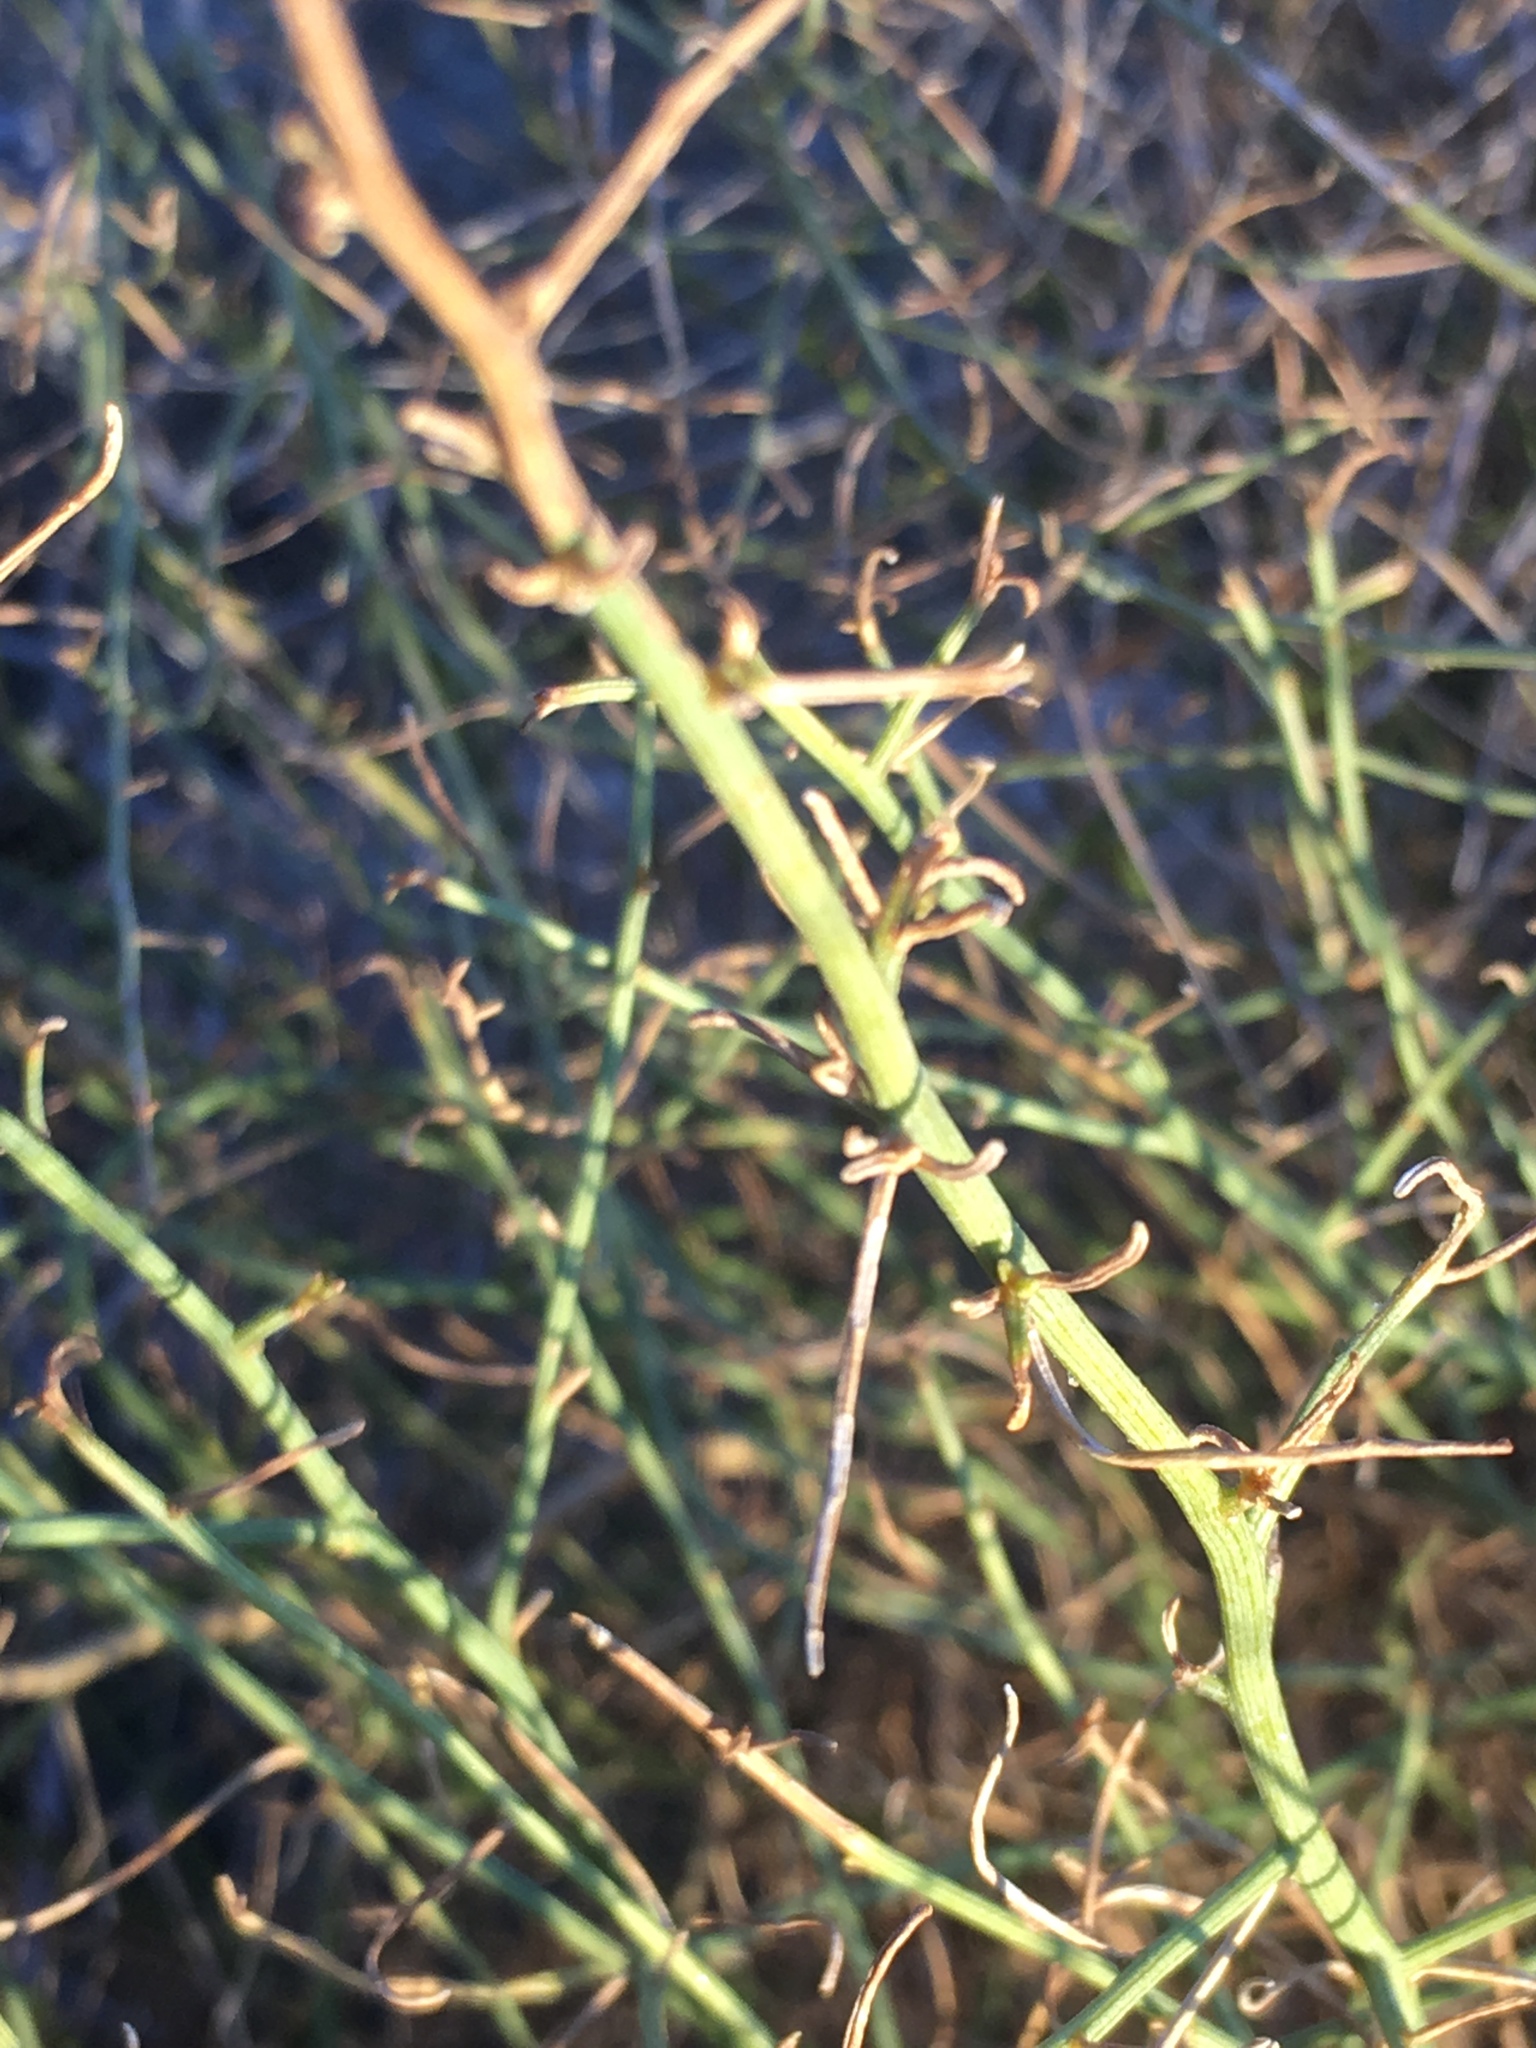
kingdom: Plantae
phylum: Tracheophyta
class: Magnoliopsida
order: Asterales
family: Asteraceae
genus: Ambrosia
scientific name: Ambrosia salsola
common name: Burrobrush
